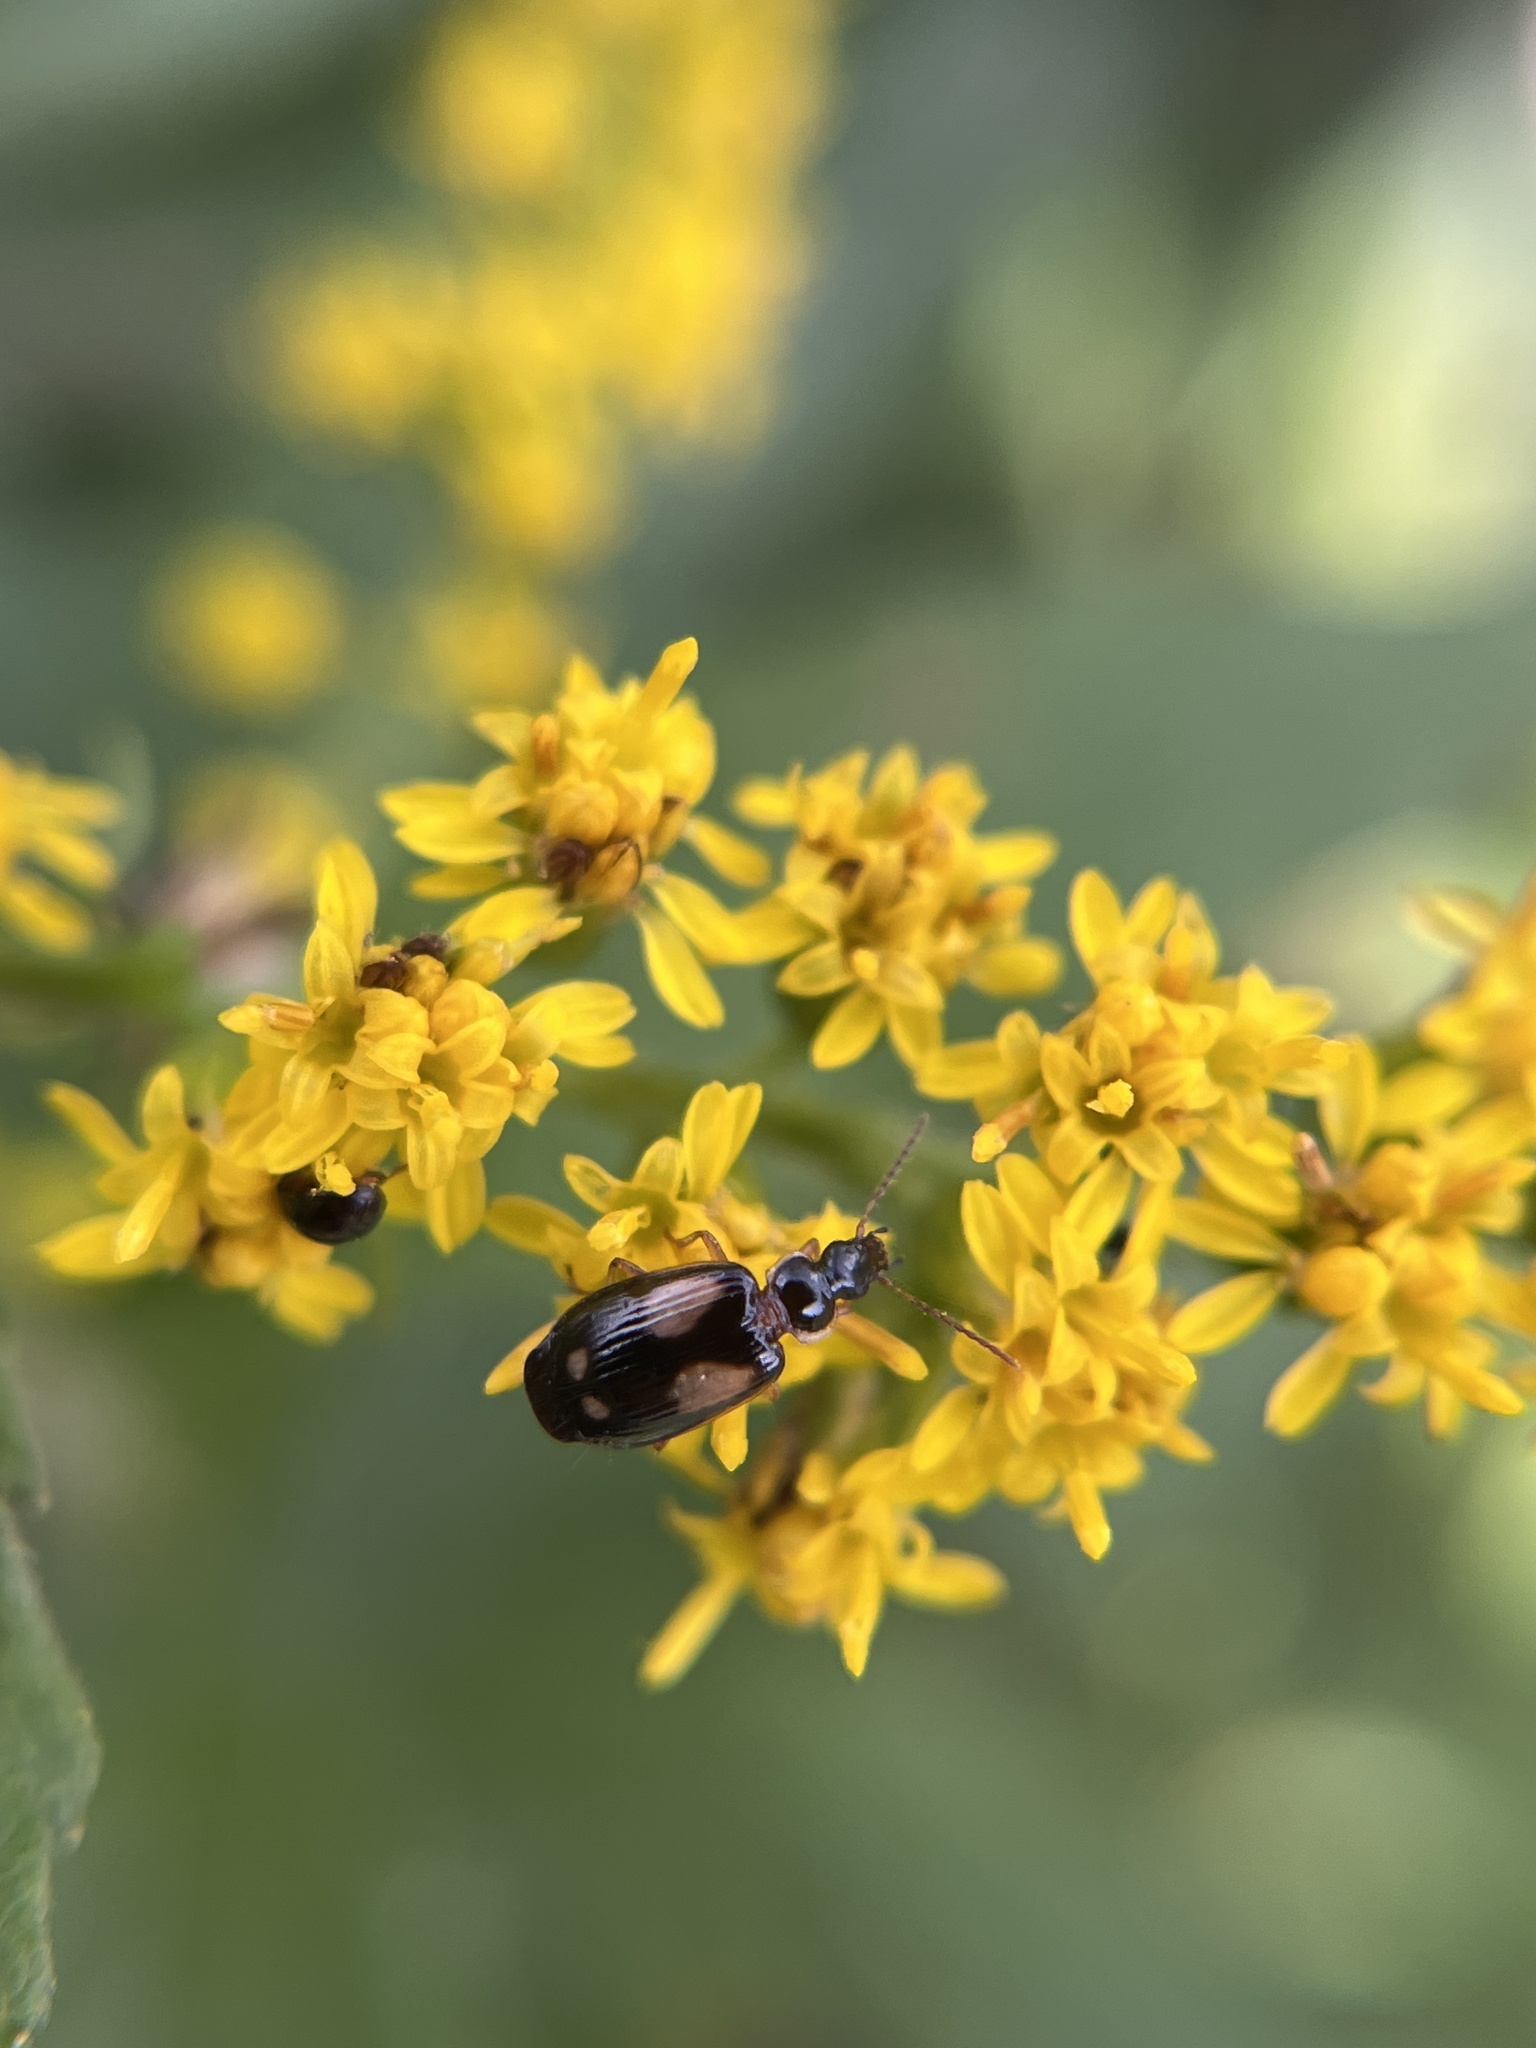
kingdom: Animalia
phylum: Arthropoda
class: Insecta
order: Coleoptera
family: Carabidae
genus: Lebia
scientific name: Lebia ornata
